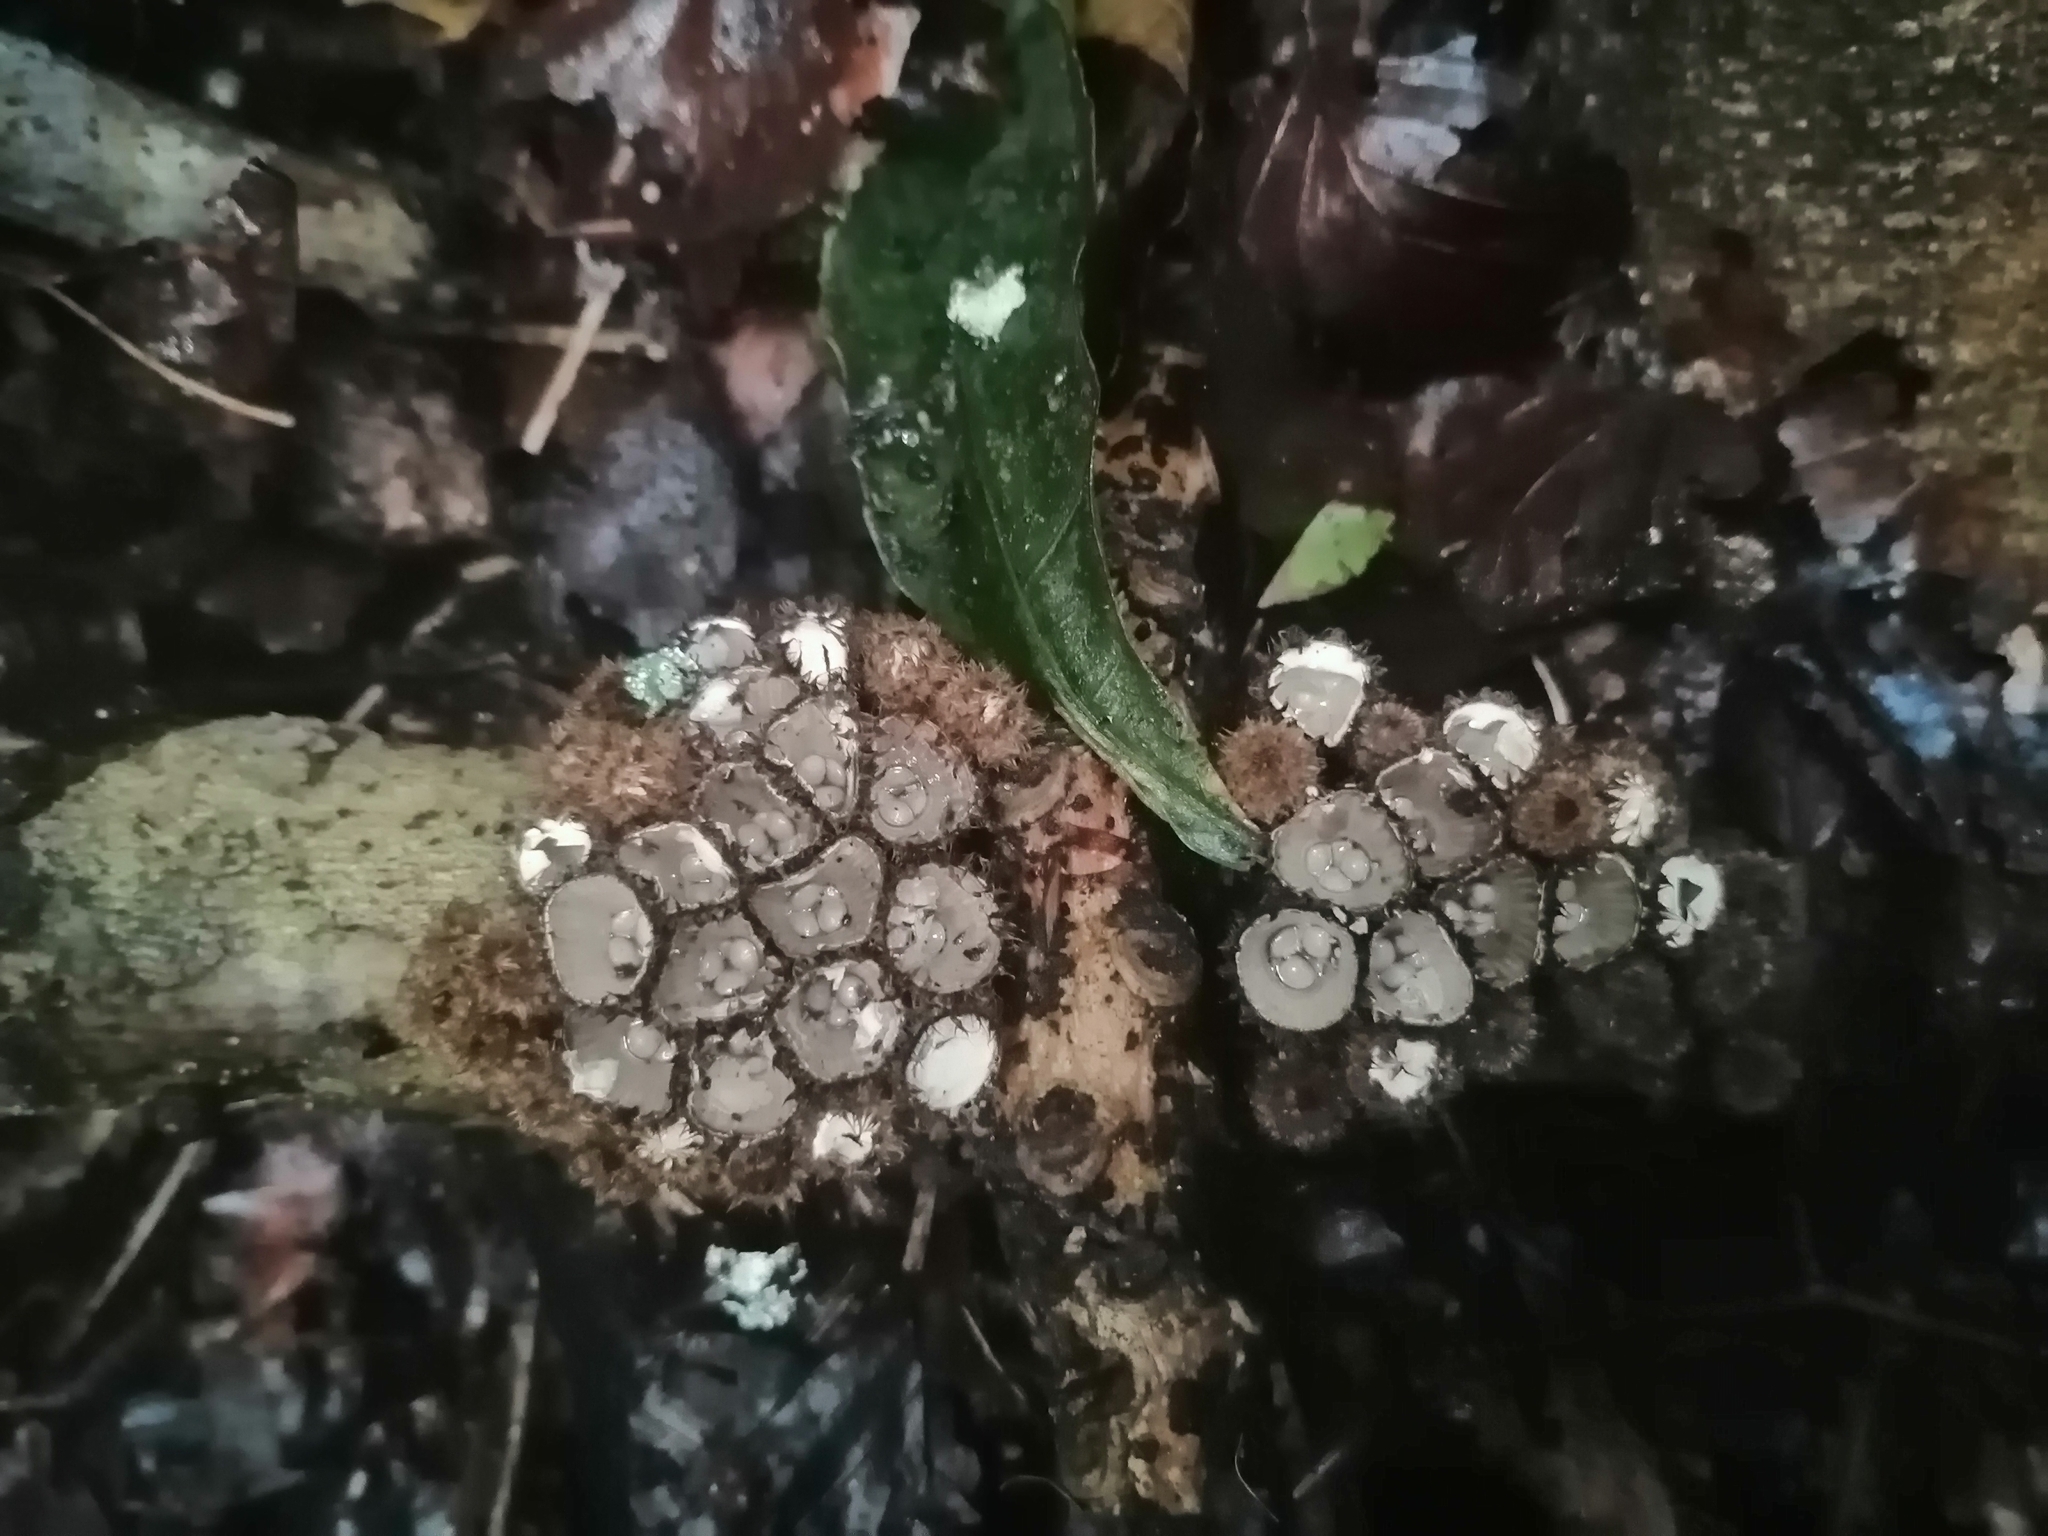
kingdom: Fungi
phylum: Basidiomycota
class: Agaricomycetes
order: Agaricales
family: Agaricaceae
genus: Cyathus
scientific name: Cyathus striatus
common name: Fluted bird's nest
